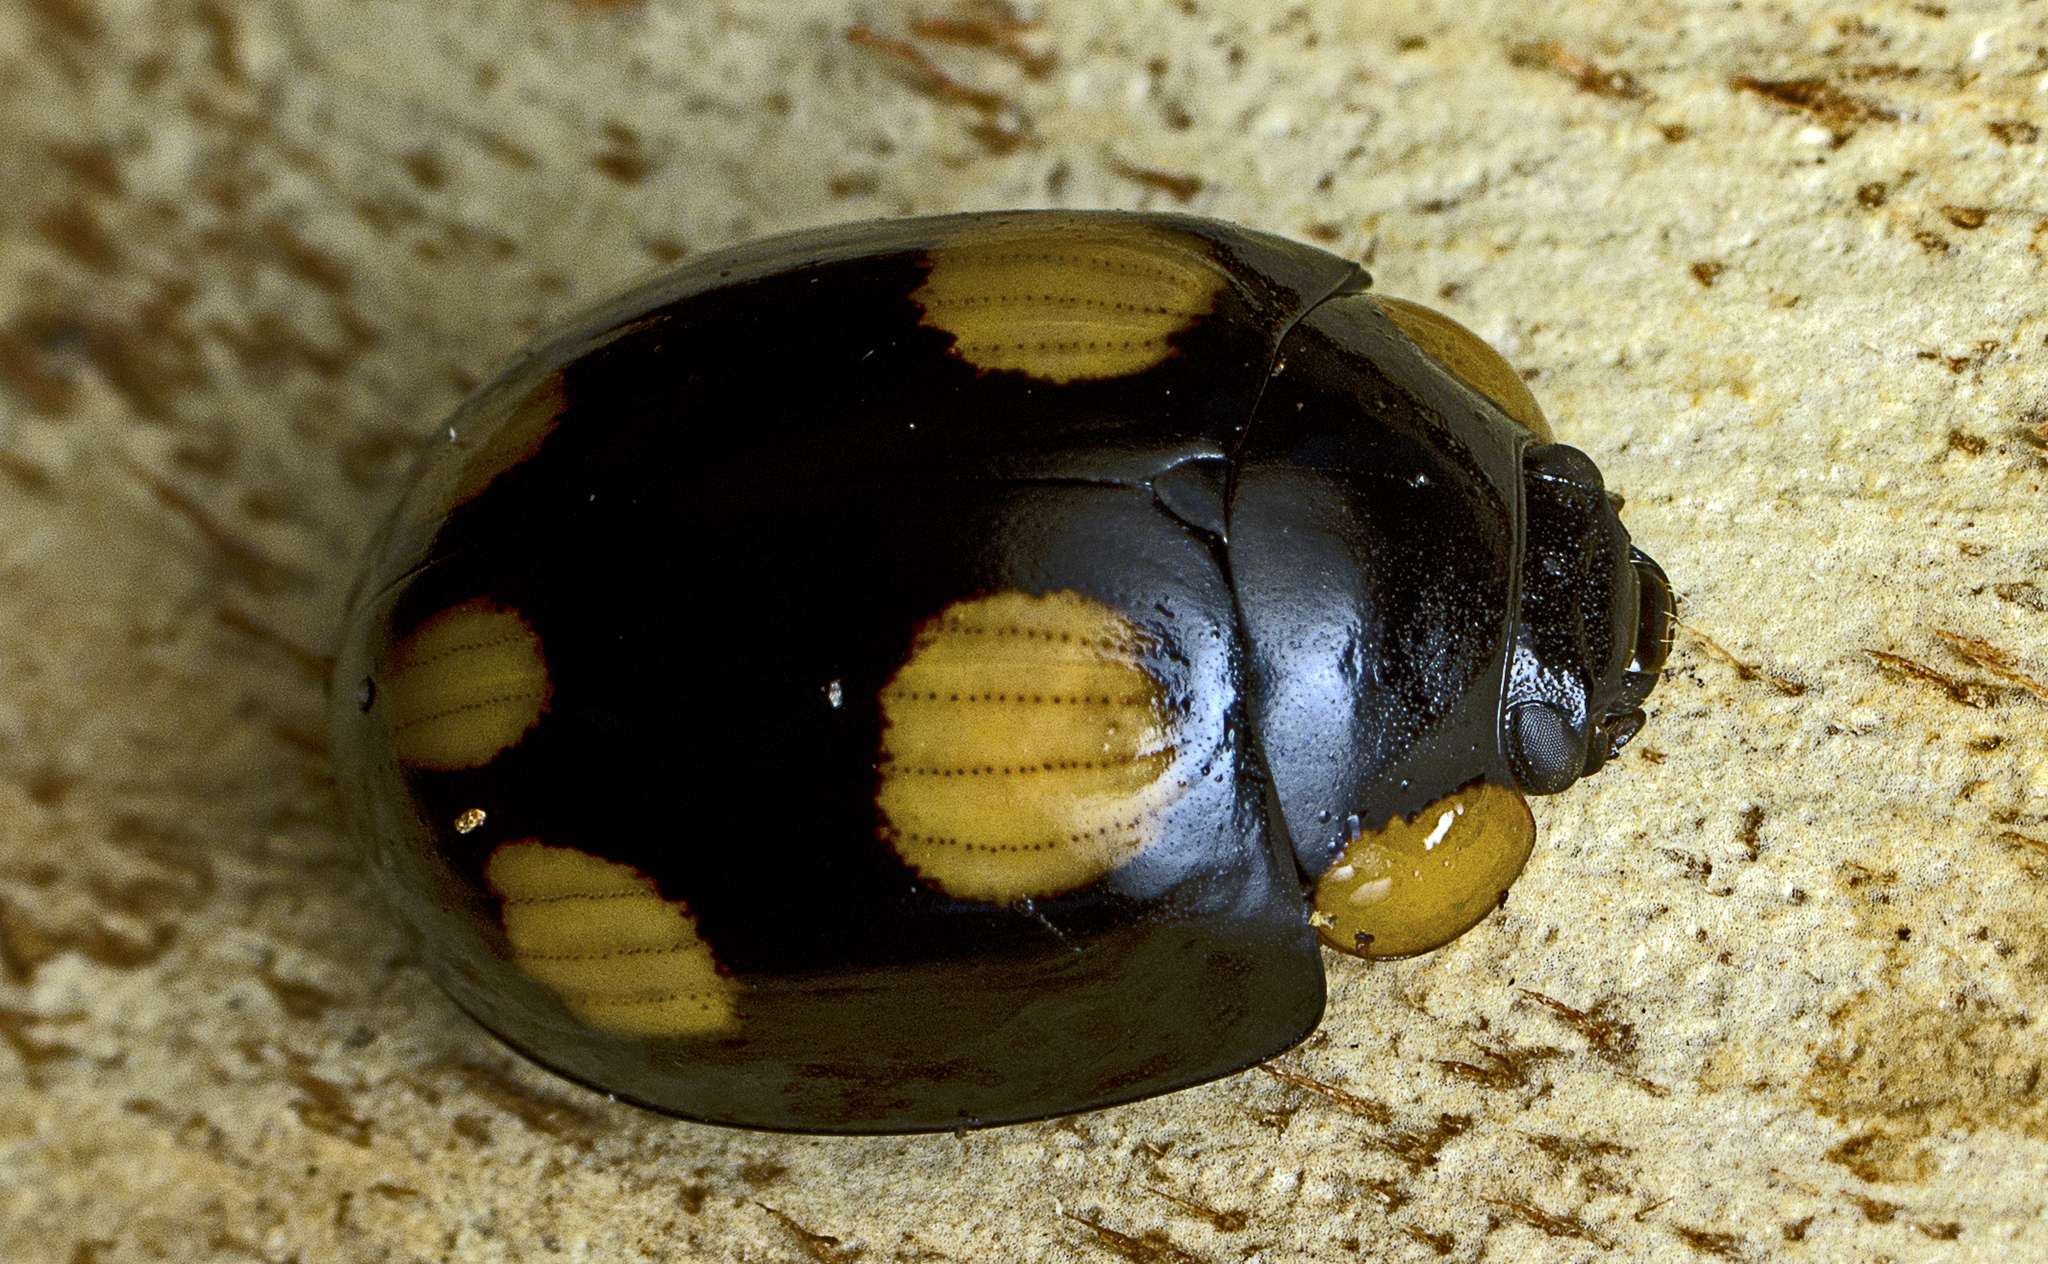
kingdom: Animalia
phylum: Arthropoda
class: Insecta
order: Coleoptera
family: Chrysomelidae
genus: Paropsisterna
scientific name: Paropsisterna
